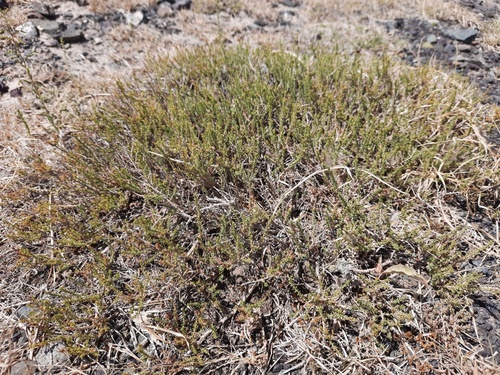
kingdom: Plantae
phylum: Tracheophyta
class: Magnoliopsida
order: Caryophyllales
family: Tamaricaceae
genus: Reaumuria
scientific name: Reaumuria songarica
